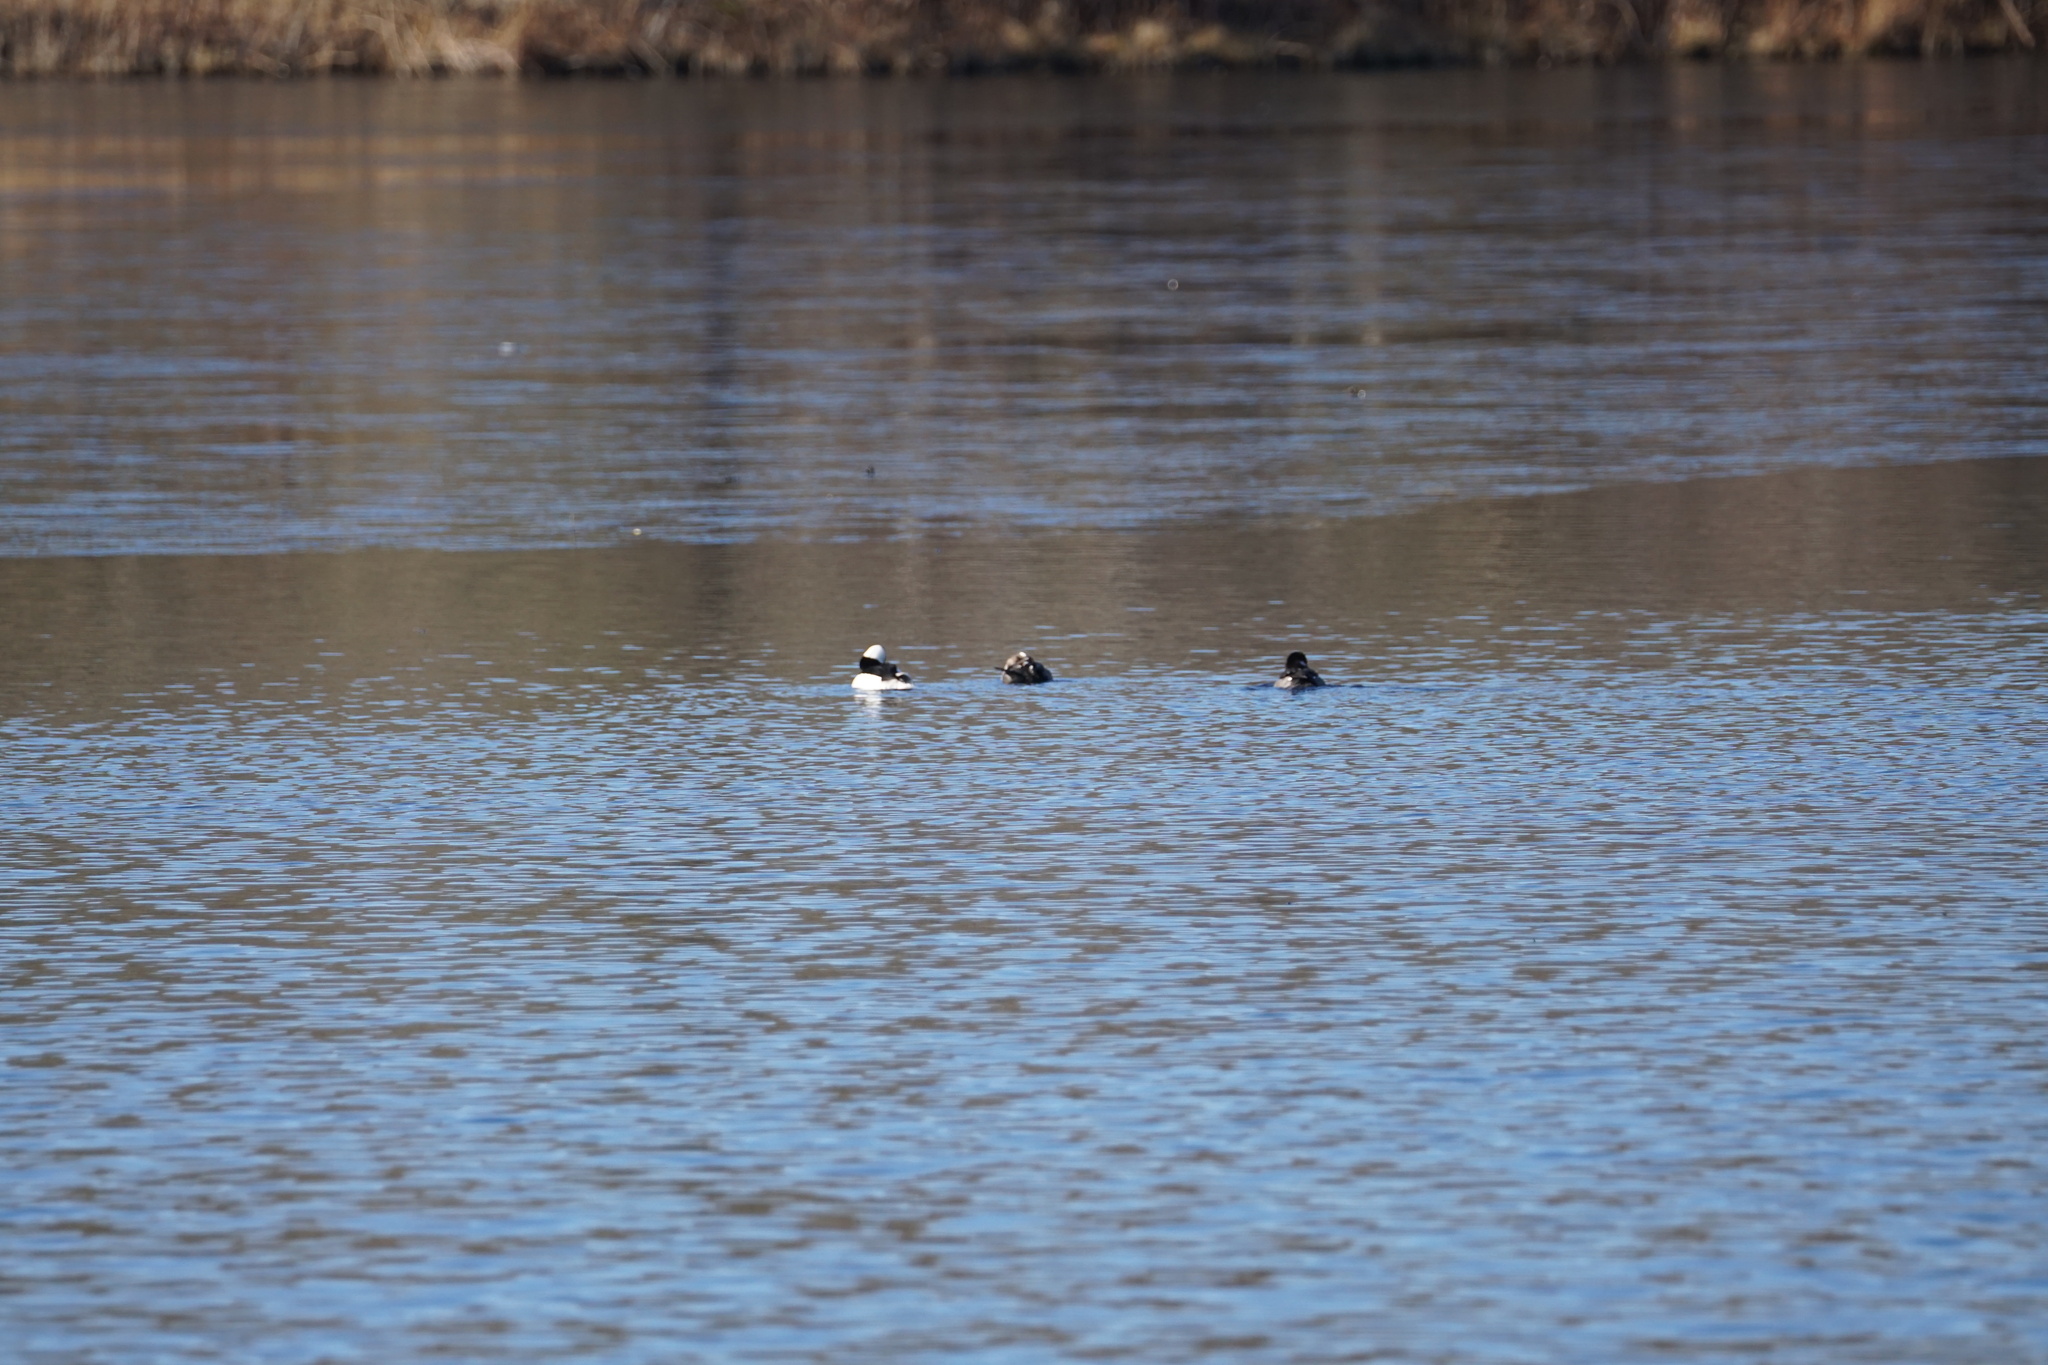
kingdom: Animalia
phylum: Chordata
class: Aves
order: Anseriformes
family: Anatidae
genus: Bucephala
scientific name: Bucephala albeola
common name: Bufflehead
